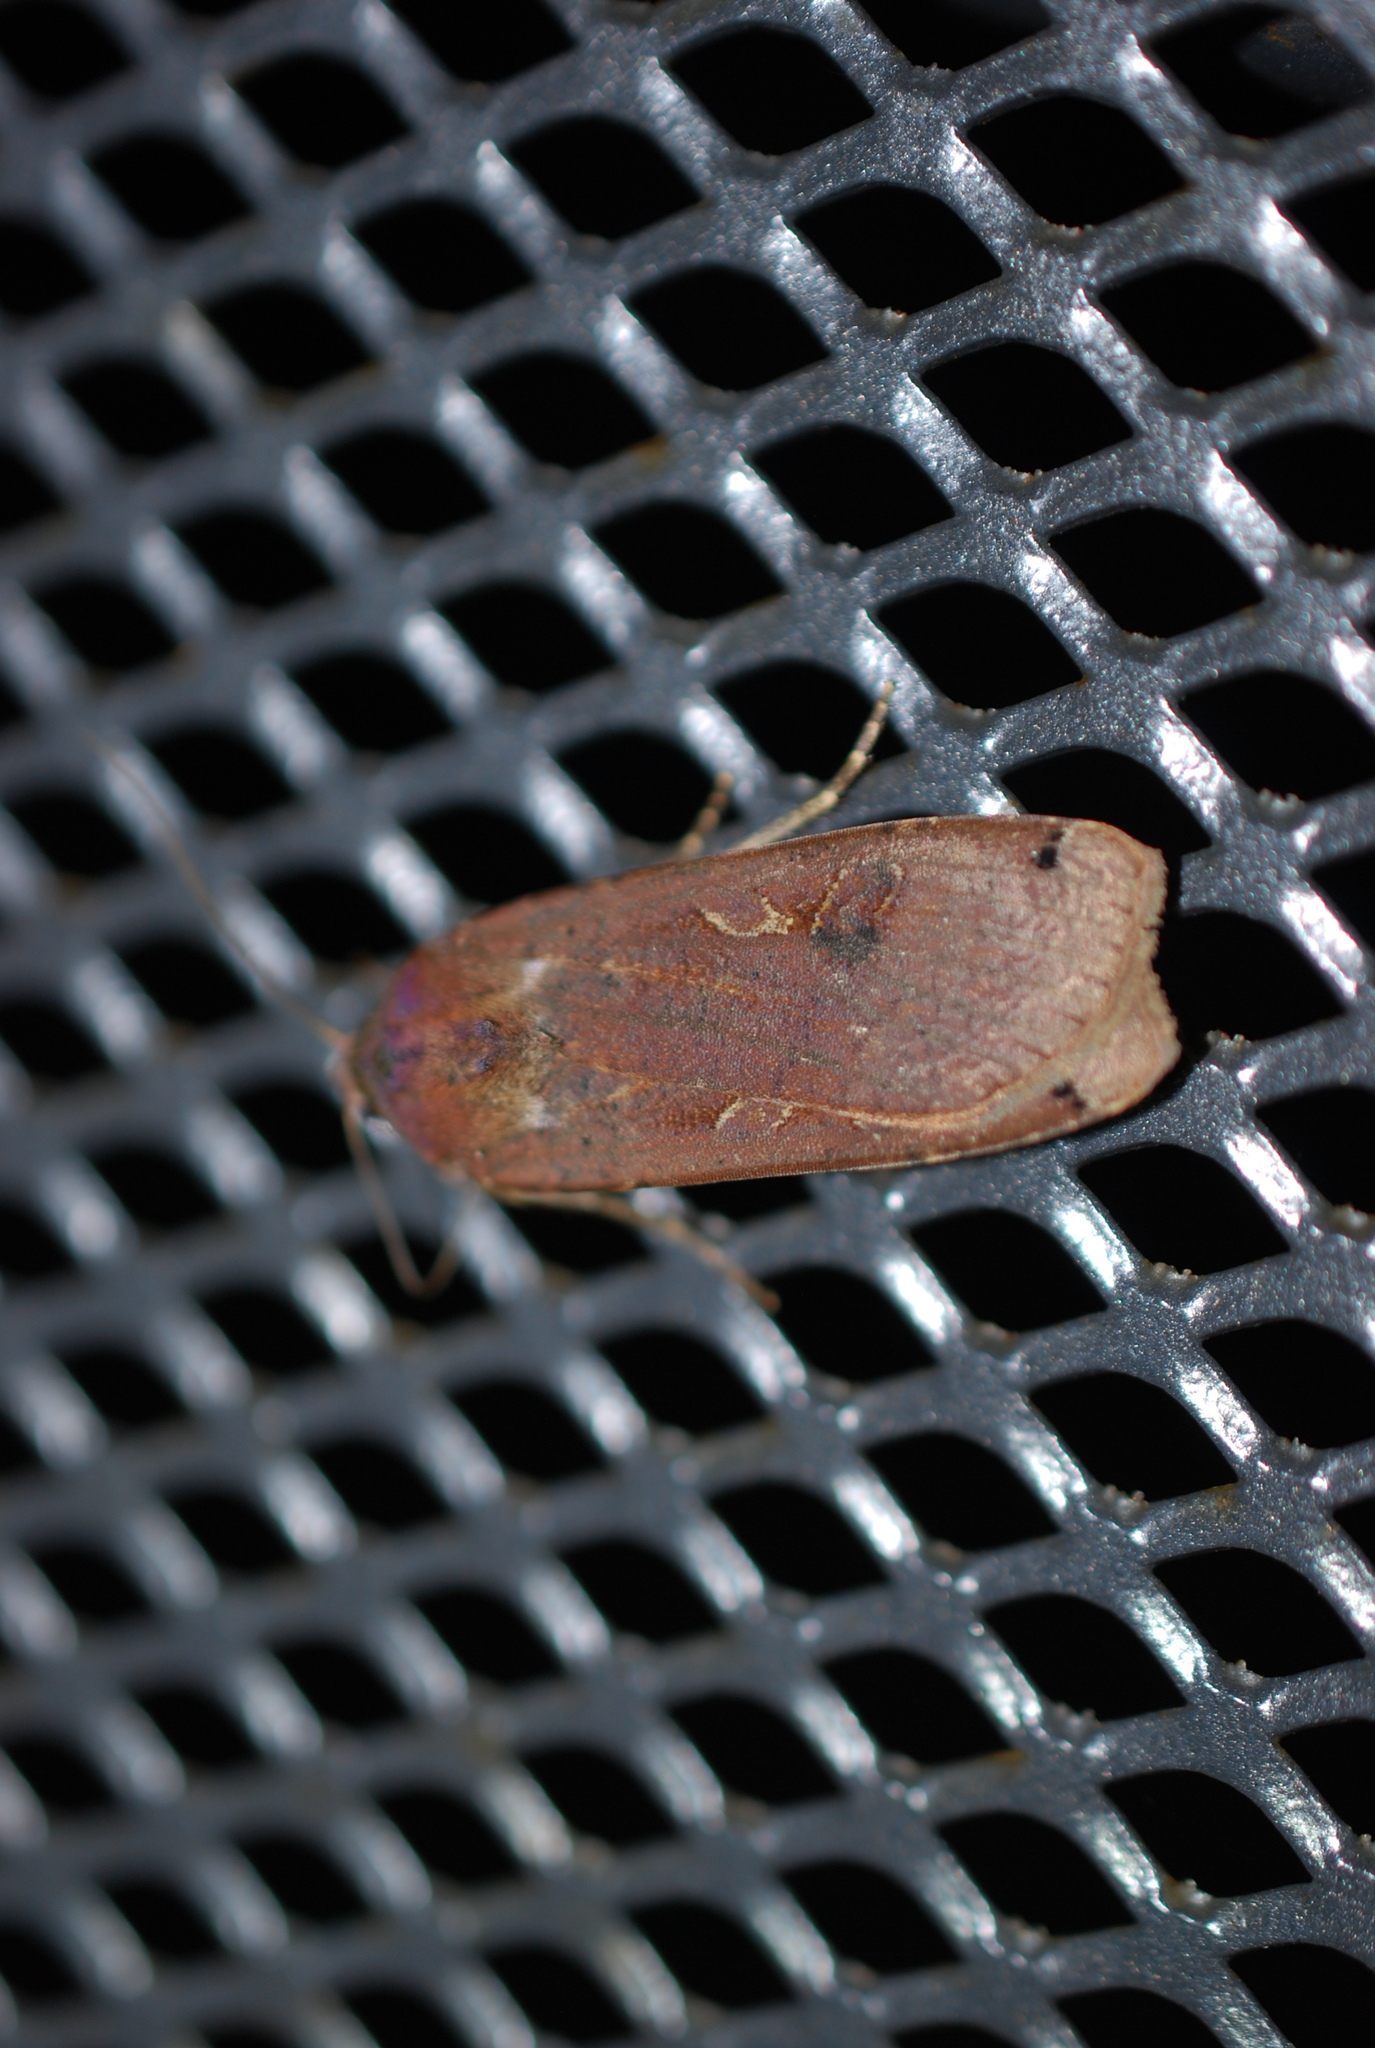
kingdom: Animalia
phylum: Arthropoda
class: Insecta
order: Lepidoptera
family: Noctuidae
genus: Noctua
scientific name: Noctua pronuba
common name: Large yellow underwing
